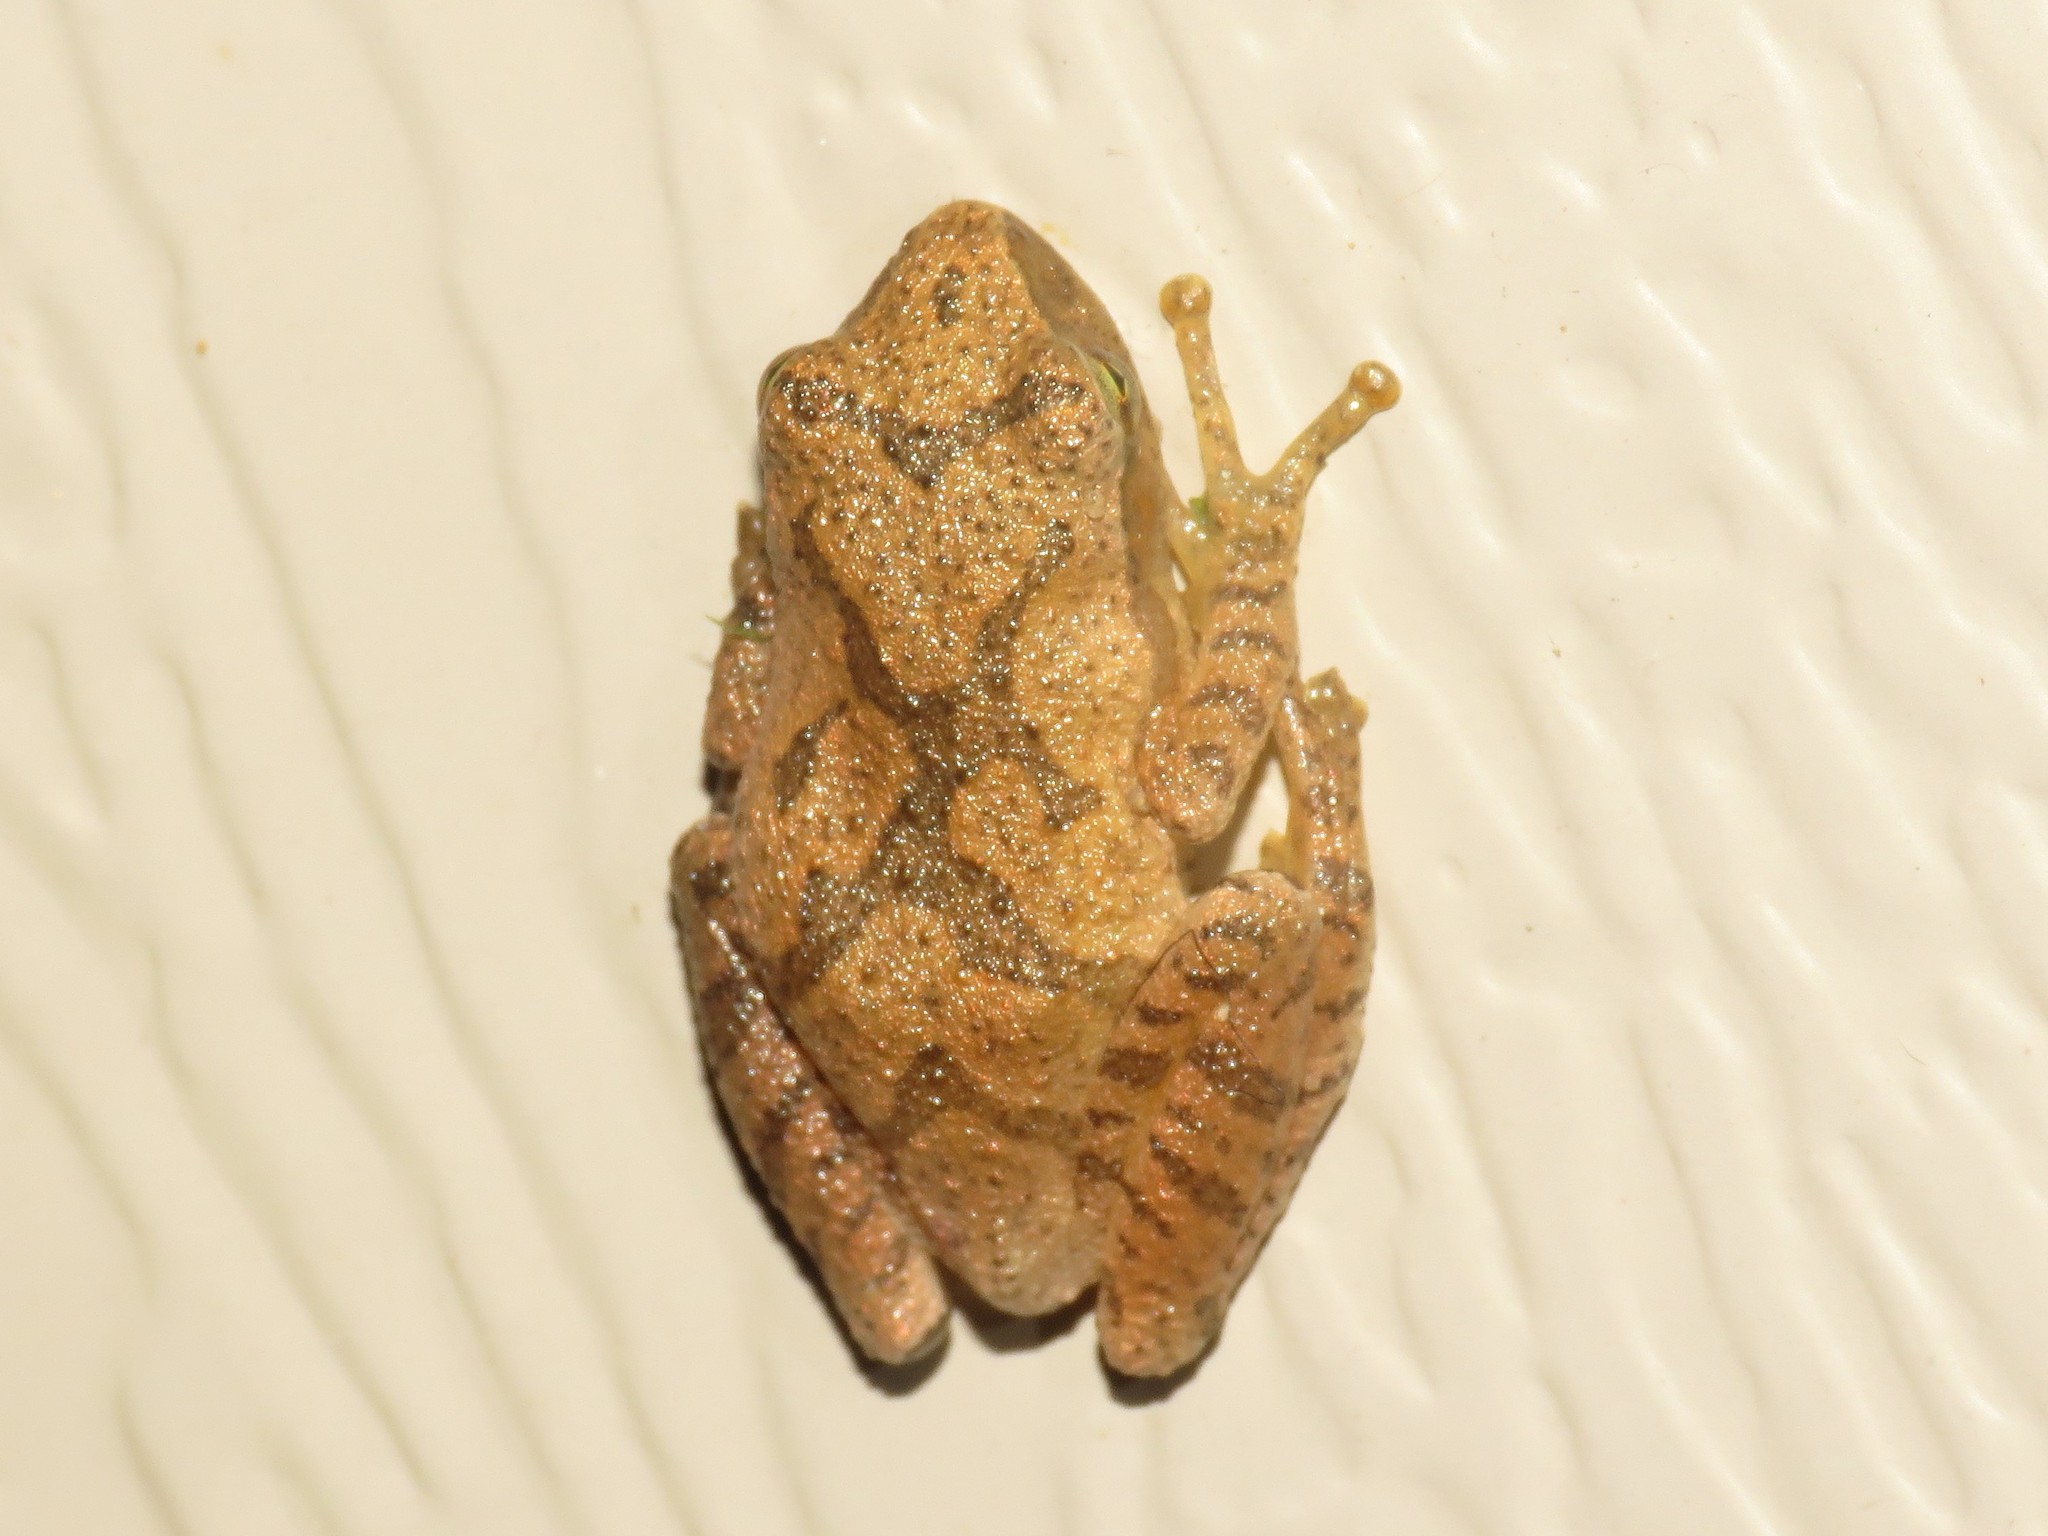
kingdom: Animalia
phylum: Chordata
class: Amphibia
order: Anura
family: Hylidae
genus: Pseudacris
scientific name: Pseudacris crucifer
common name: Spring peeper
